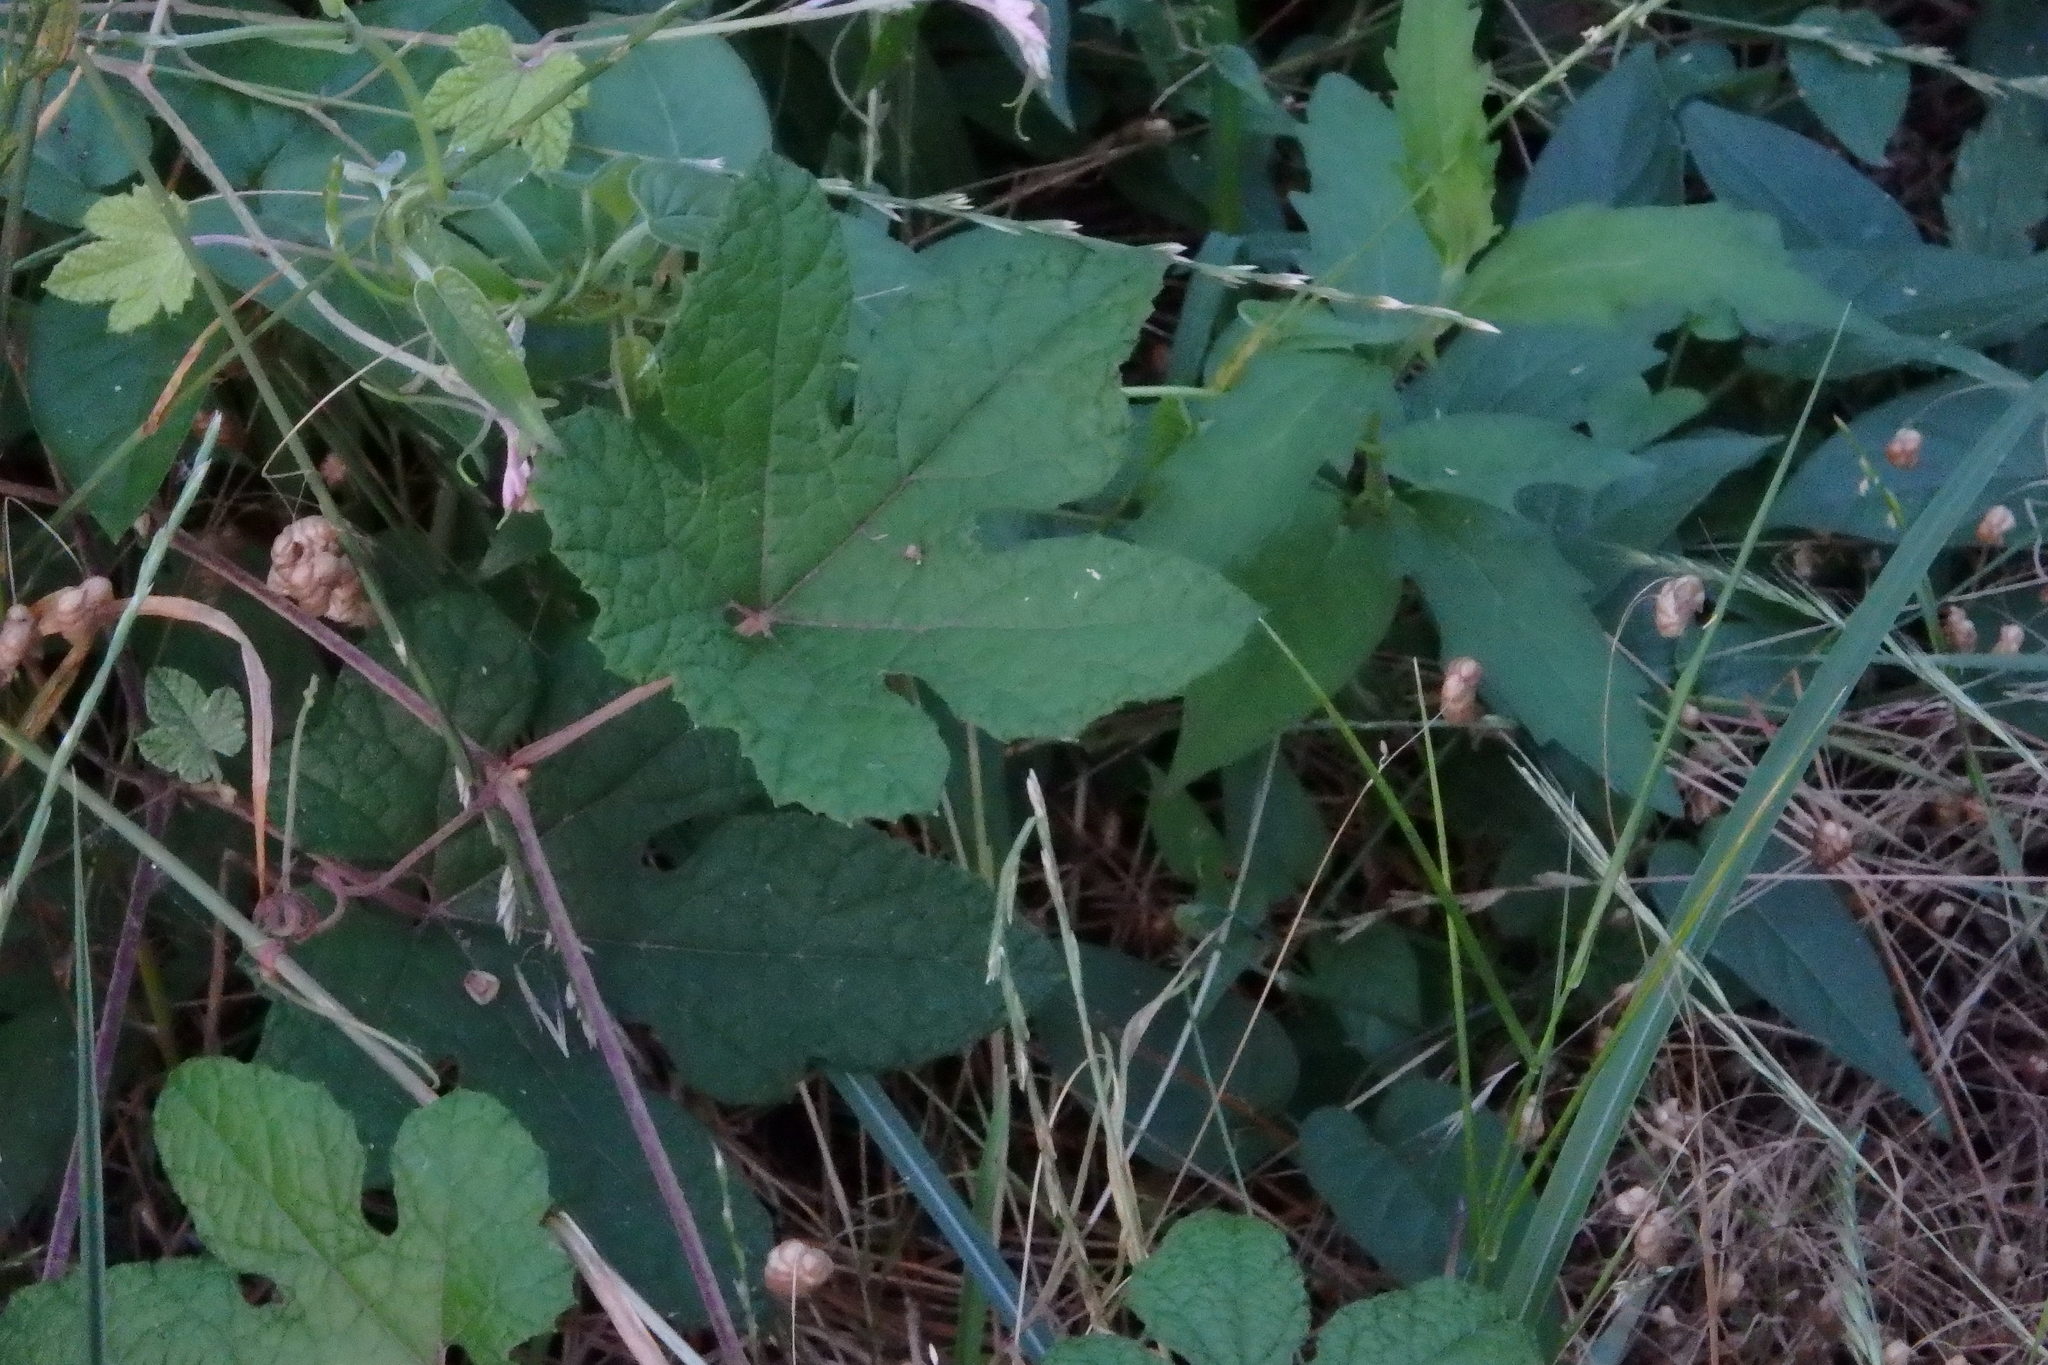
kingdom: Plantae
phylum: Tracheophyta
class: Magnoliopsida
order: Vitales
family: Vitaceae
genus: Ampelopsis
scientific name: Ampelopsis glandulosa
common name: Amur peppervine
